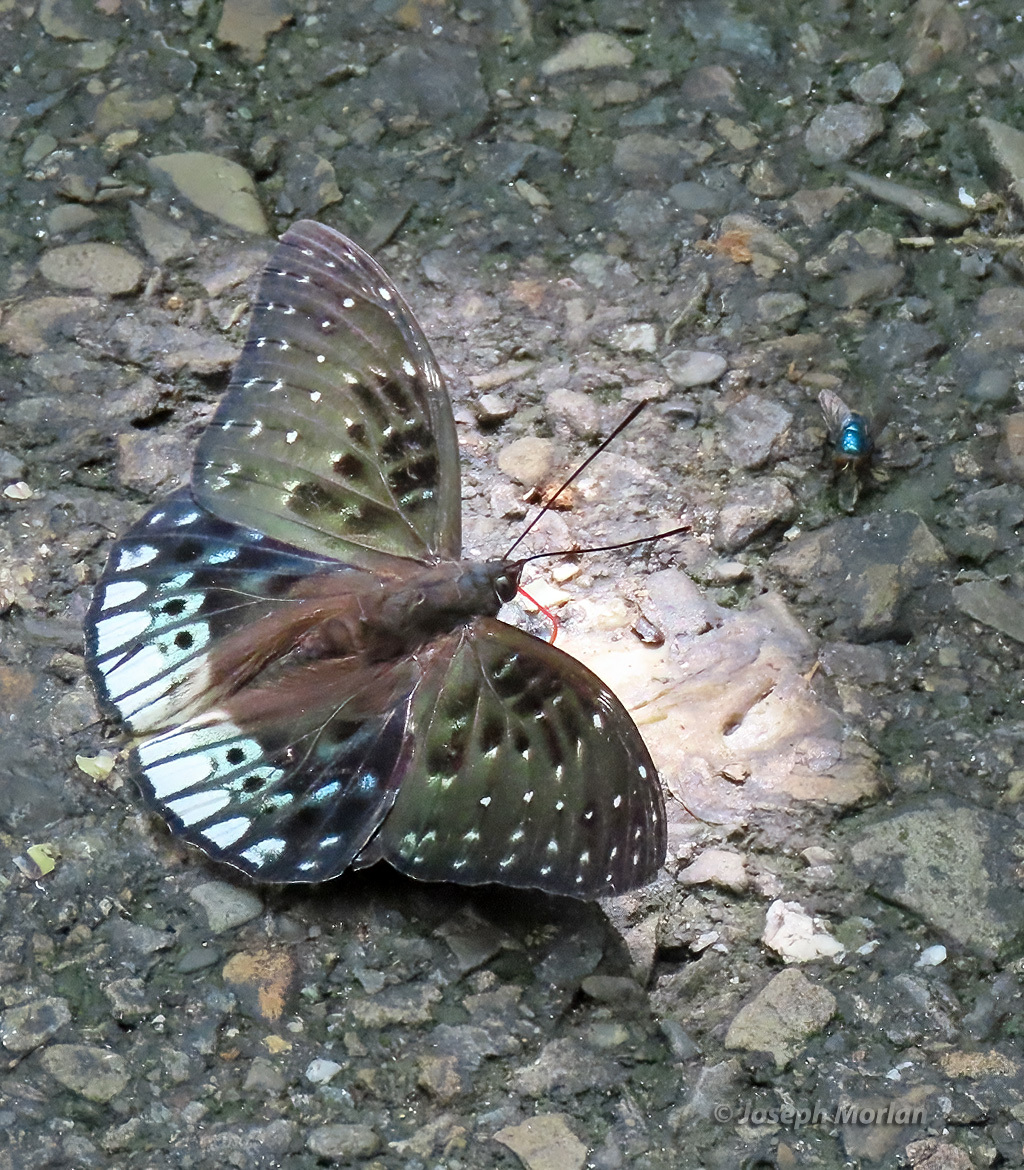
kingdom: Animalia
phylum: Arthropoda
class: Insecta
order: Lepidoptera
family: Nymphalidae
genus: Dichorragia
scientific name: Dichorragia ninus
